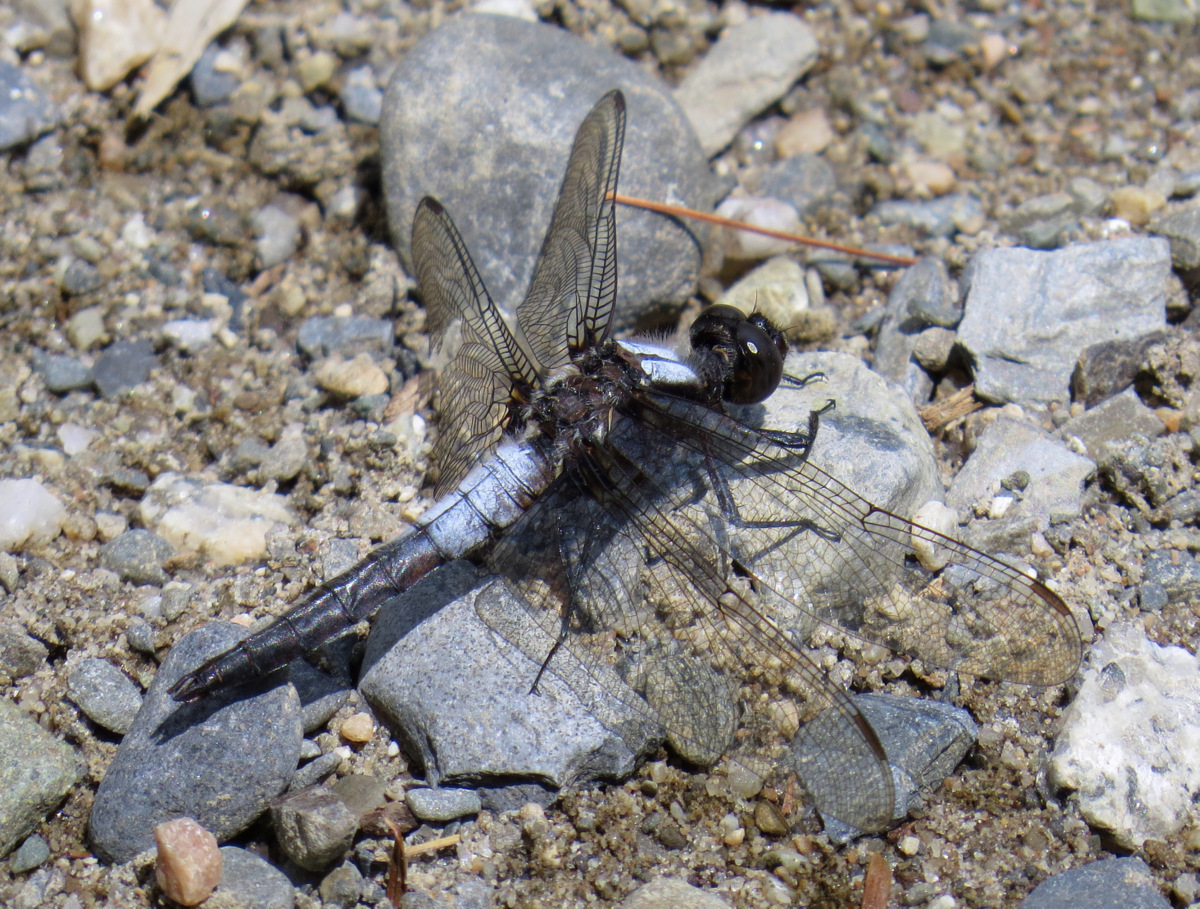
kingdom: Animalia
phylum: Arthropoda
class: Insecta
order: Odonata
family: Libellulidae
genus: Ladona
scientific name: Ladona julia
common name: Chalk-fronted corporal
